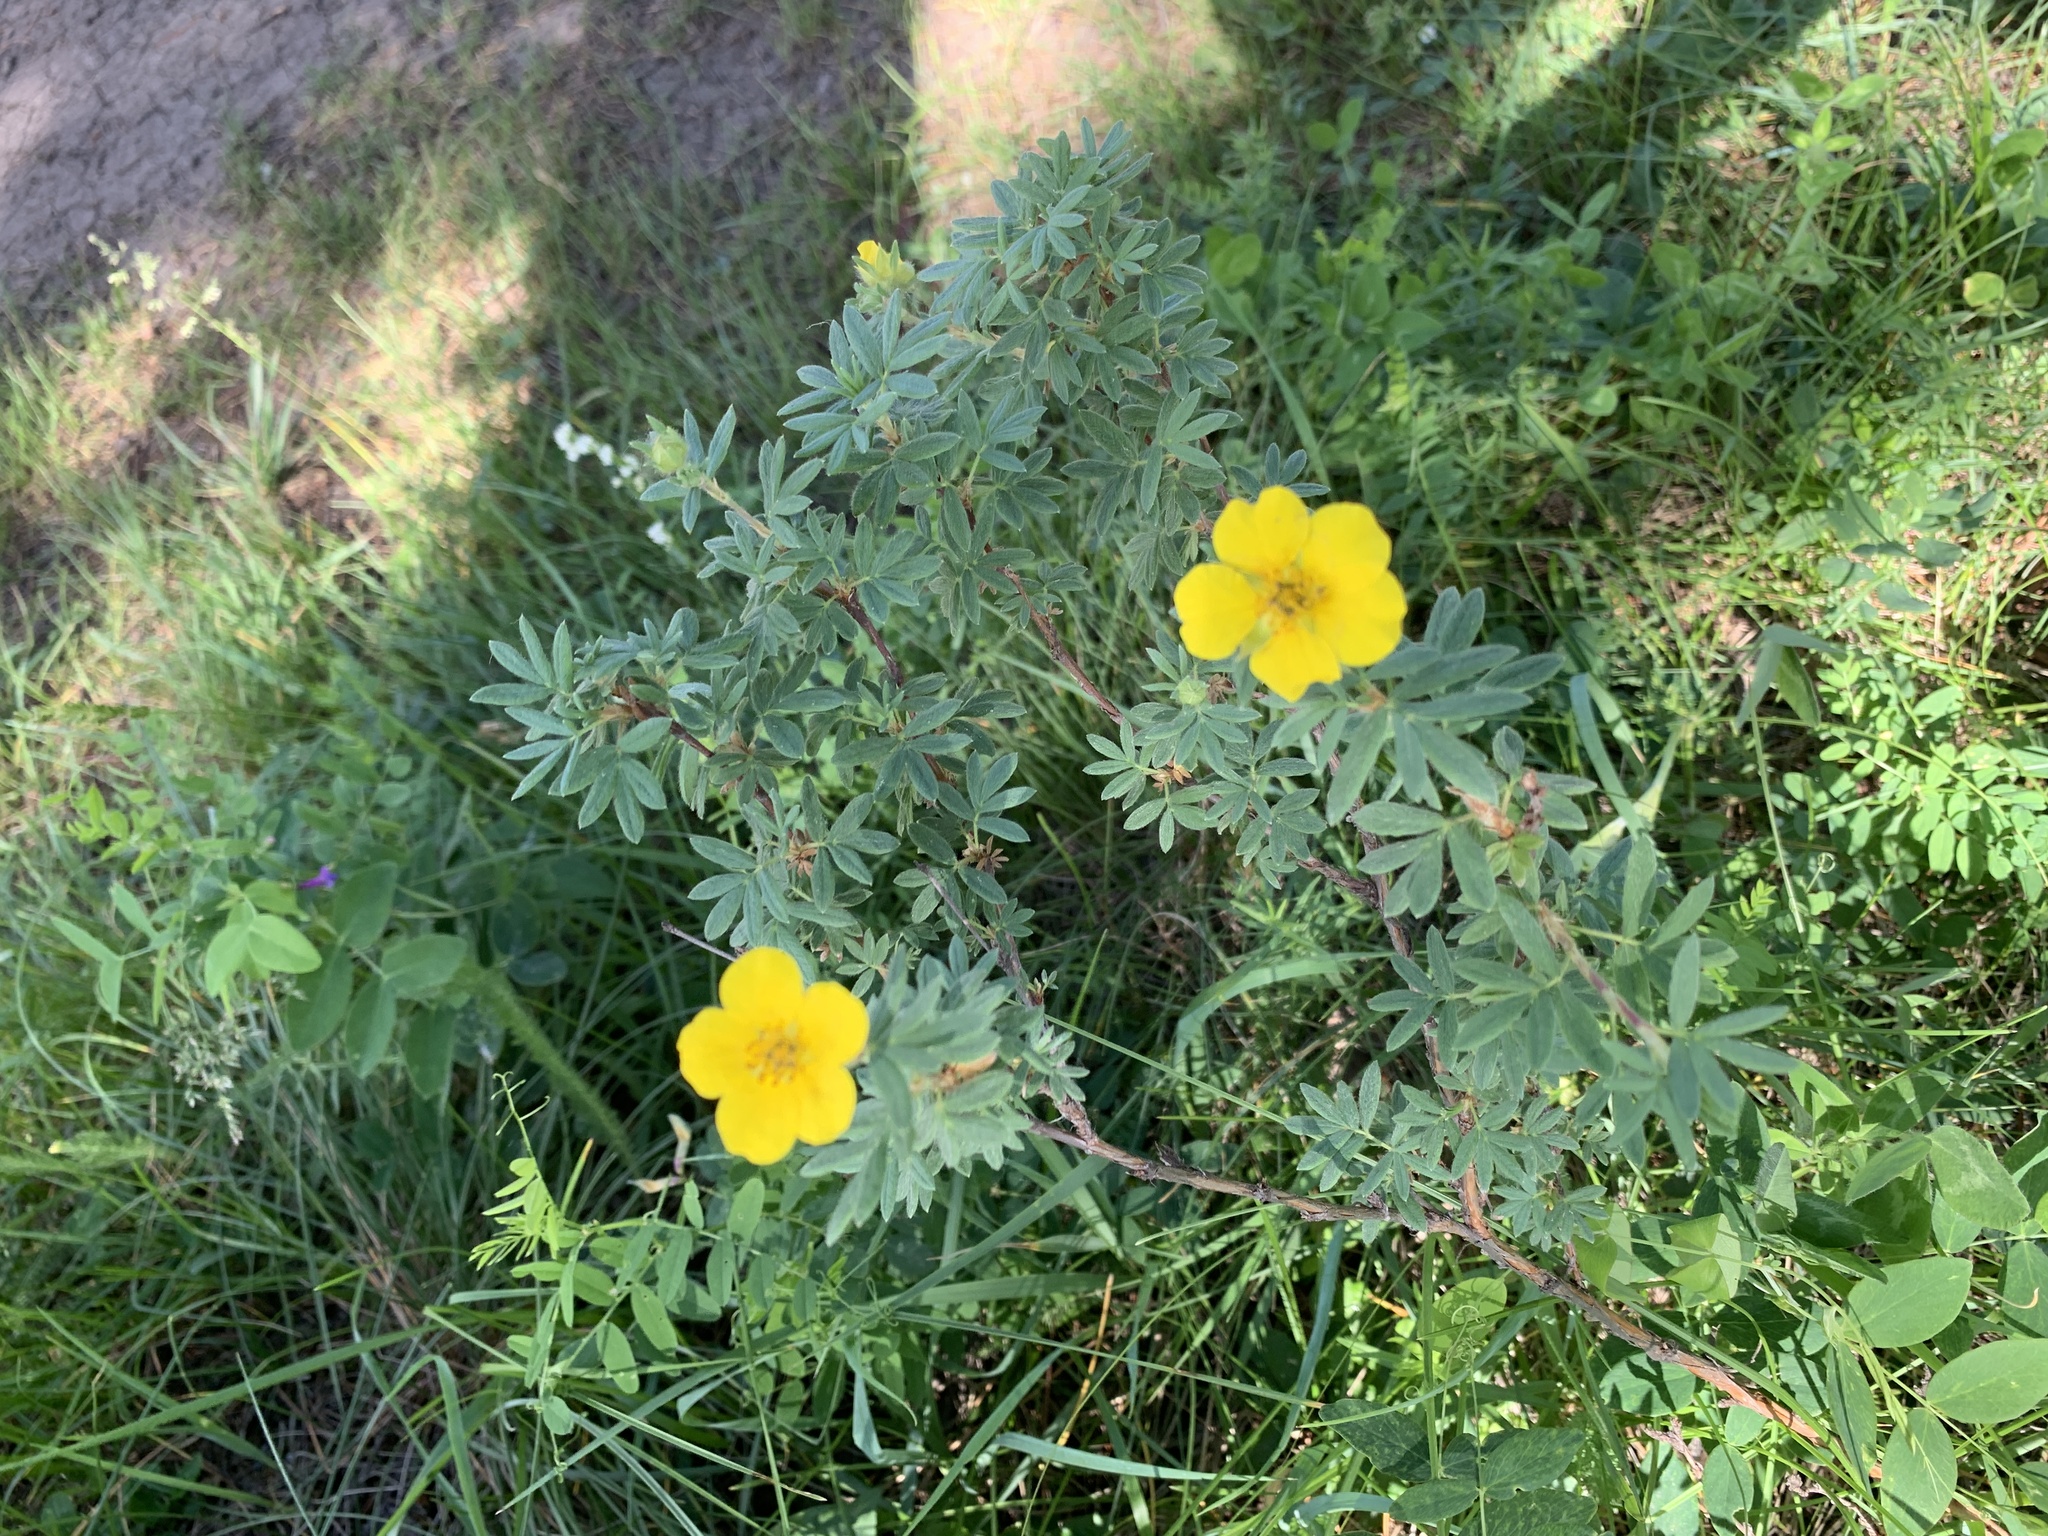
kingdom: Plantae
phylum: Tracheophyta
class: Magnoliopsida
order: Rosales
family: Rosaceae
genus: Dasiphora
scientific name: Dasiphora fruticosa
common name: Shrubby cinquefoil
